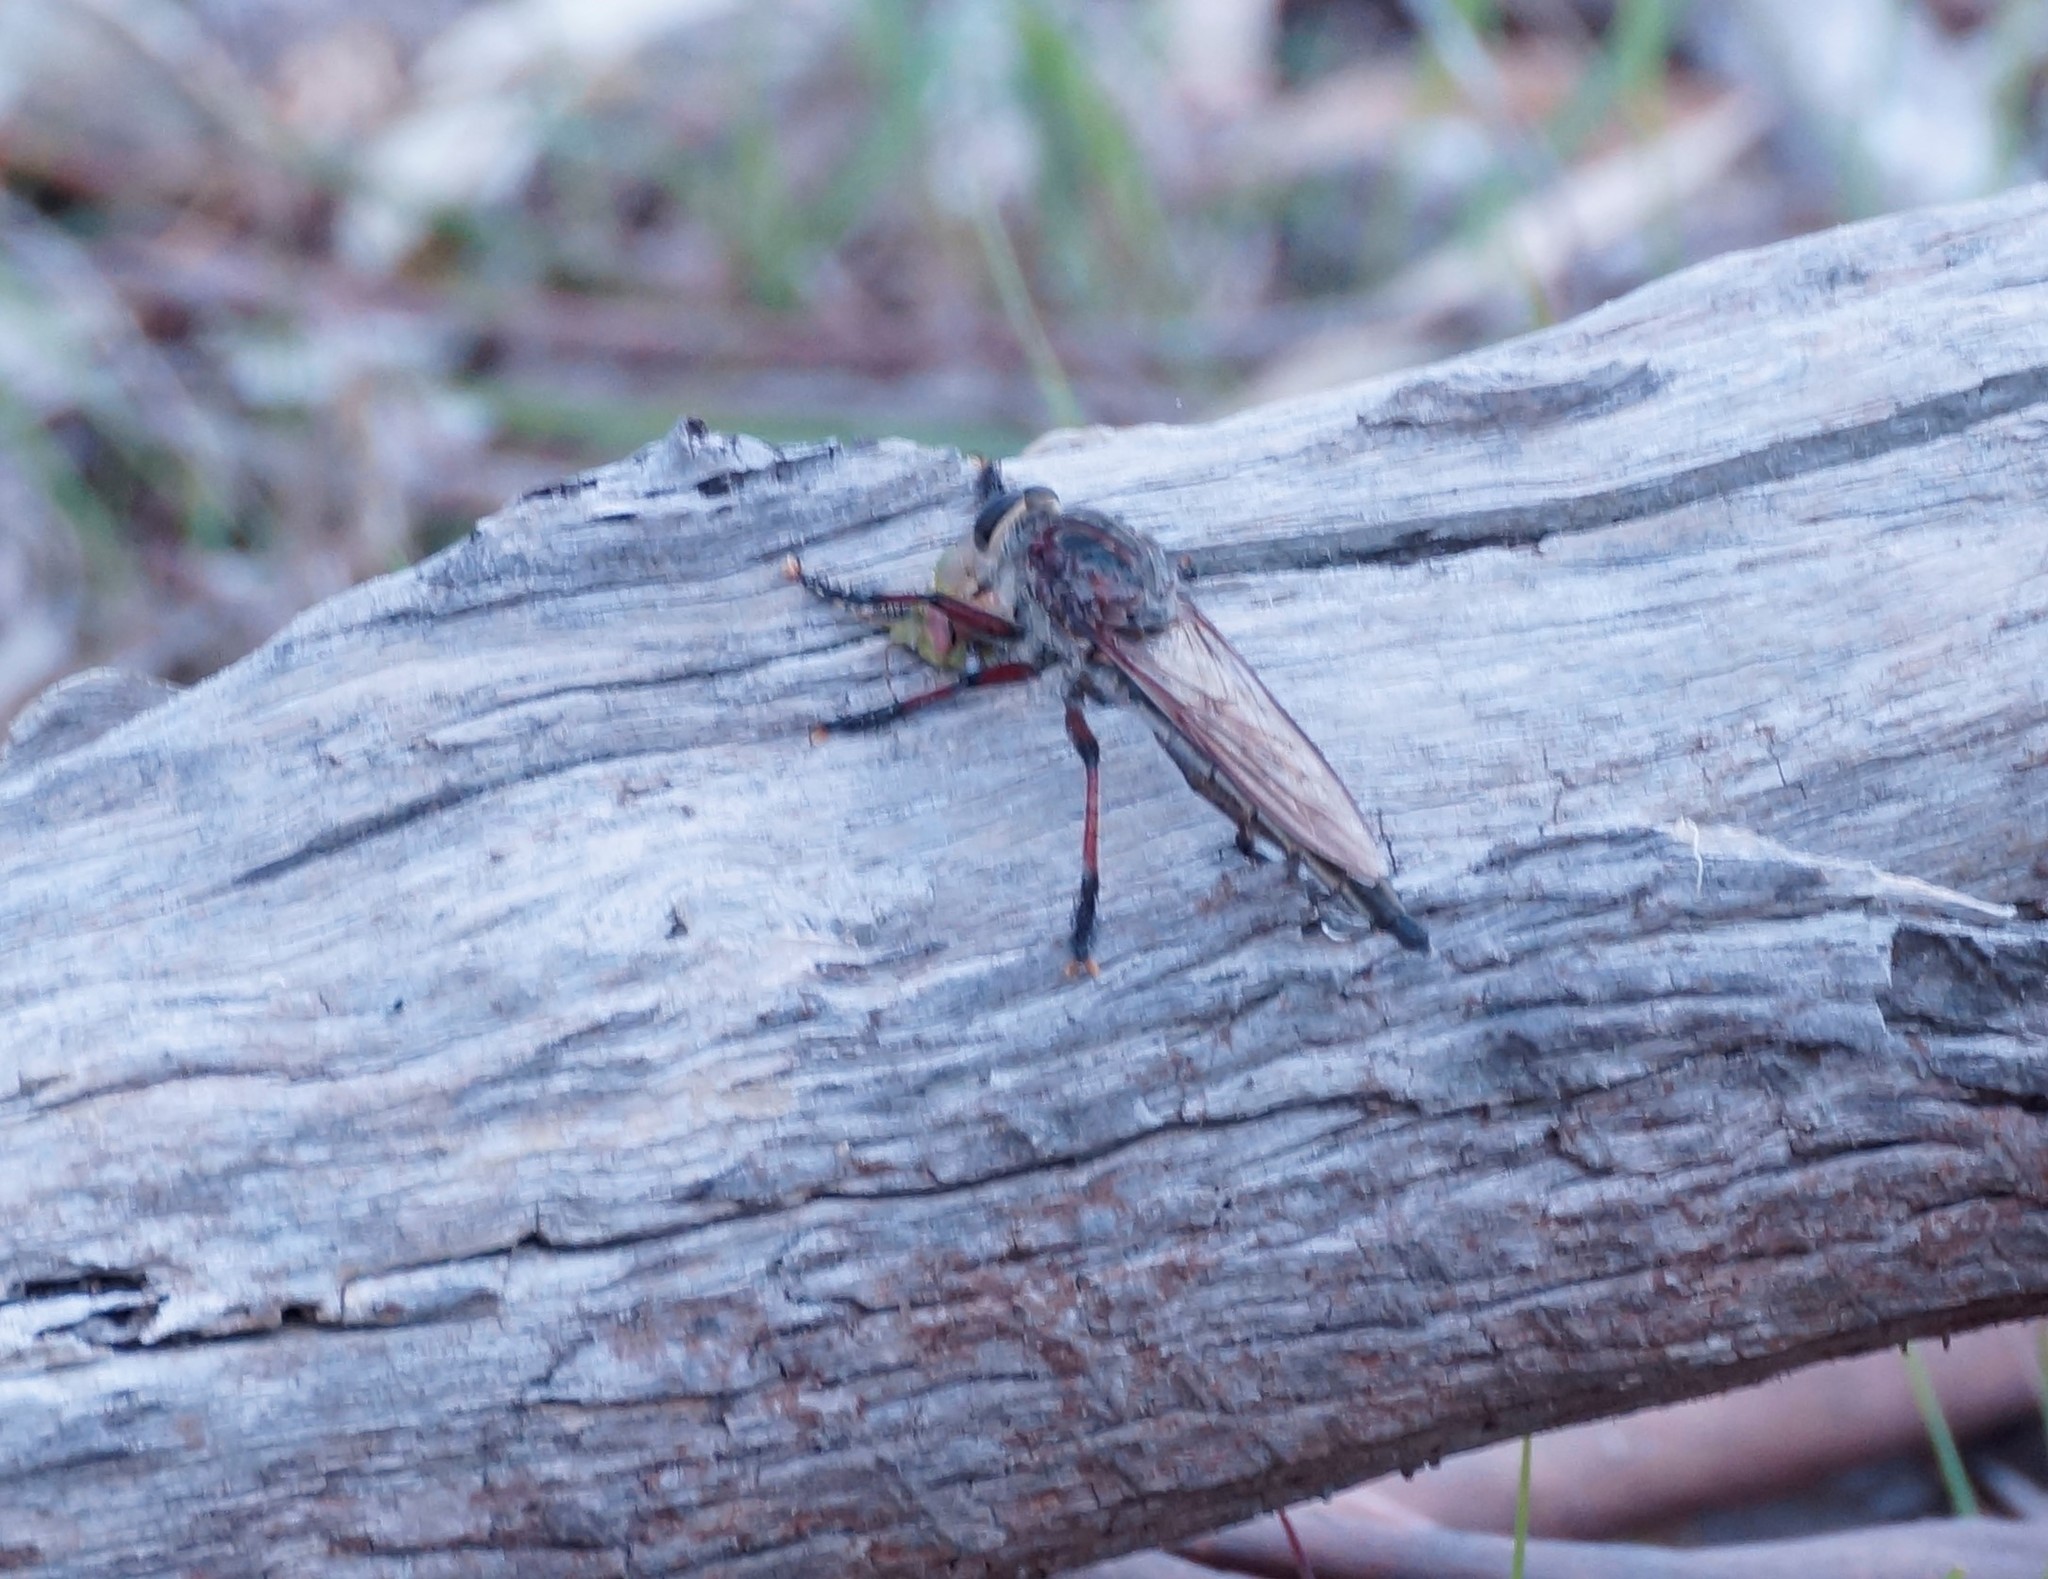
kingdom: Animalia
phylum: Arthropoda
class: Insecta
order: Diptera
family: Asilidae
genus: Neoaratus
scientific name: Neoaratus hercules
